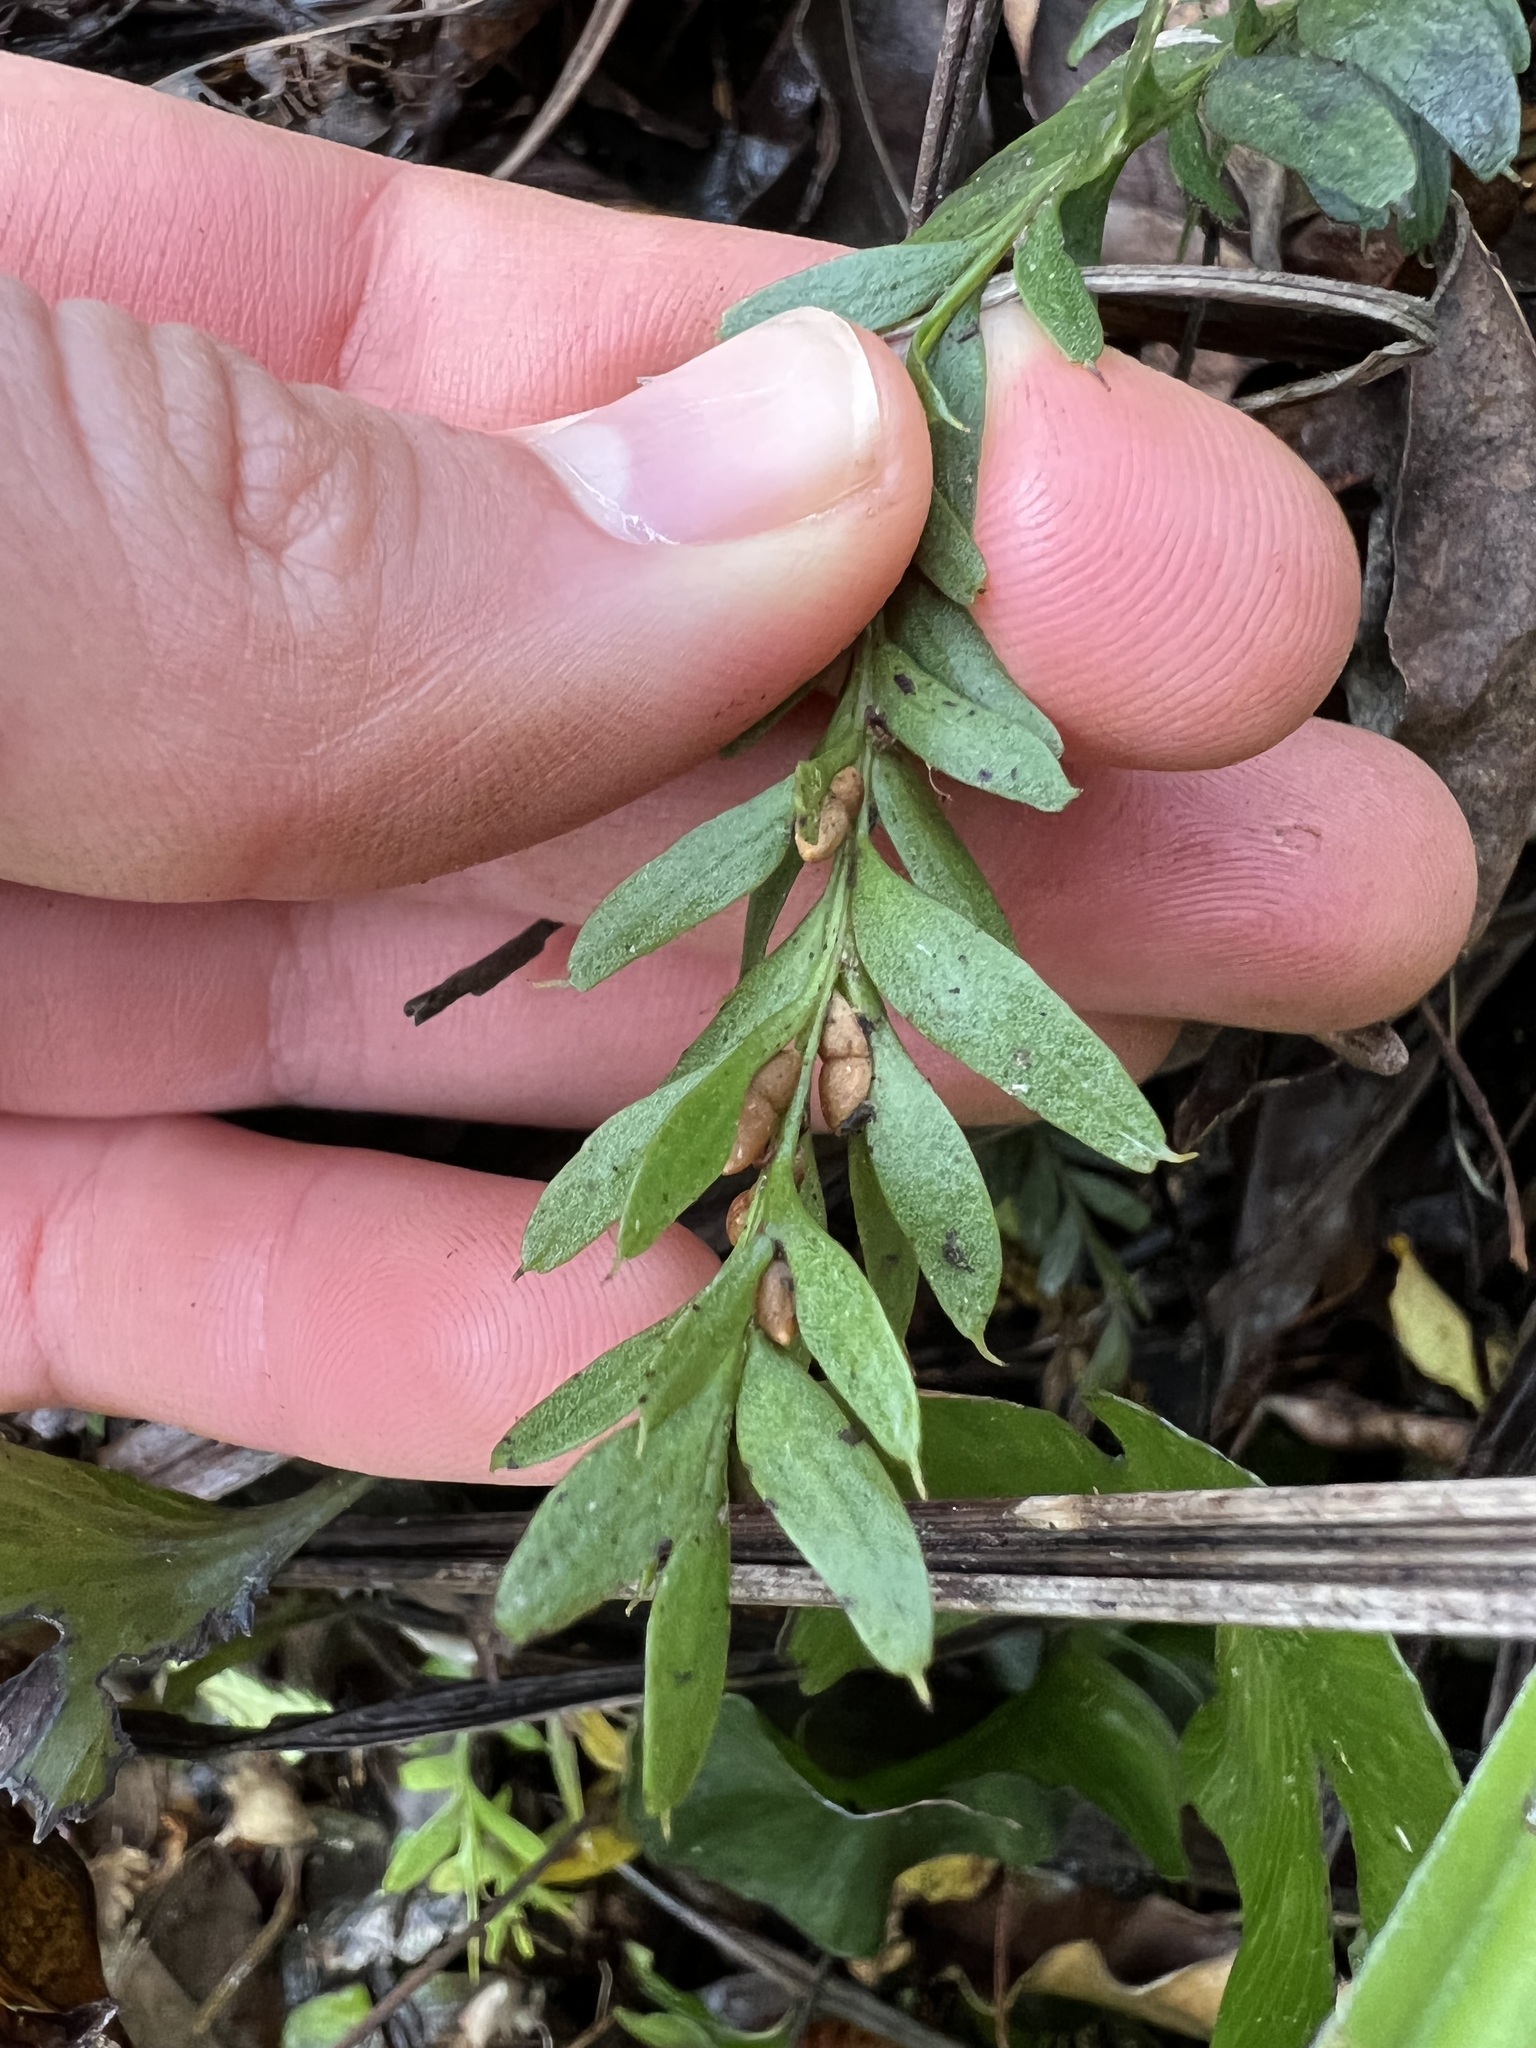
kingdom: Plantae
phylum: Tracheophyta
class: Polypodiopsida
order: Psilotales
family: Psilotaceae
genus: Tmesipteris
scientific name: Tmesipteris tannensis
